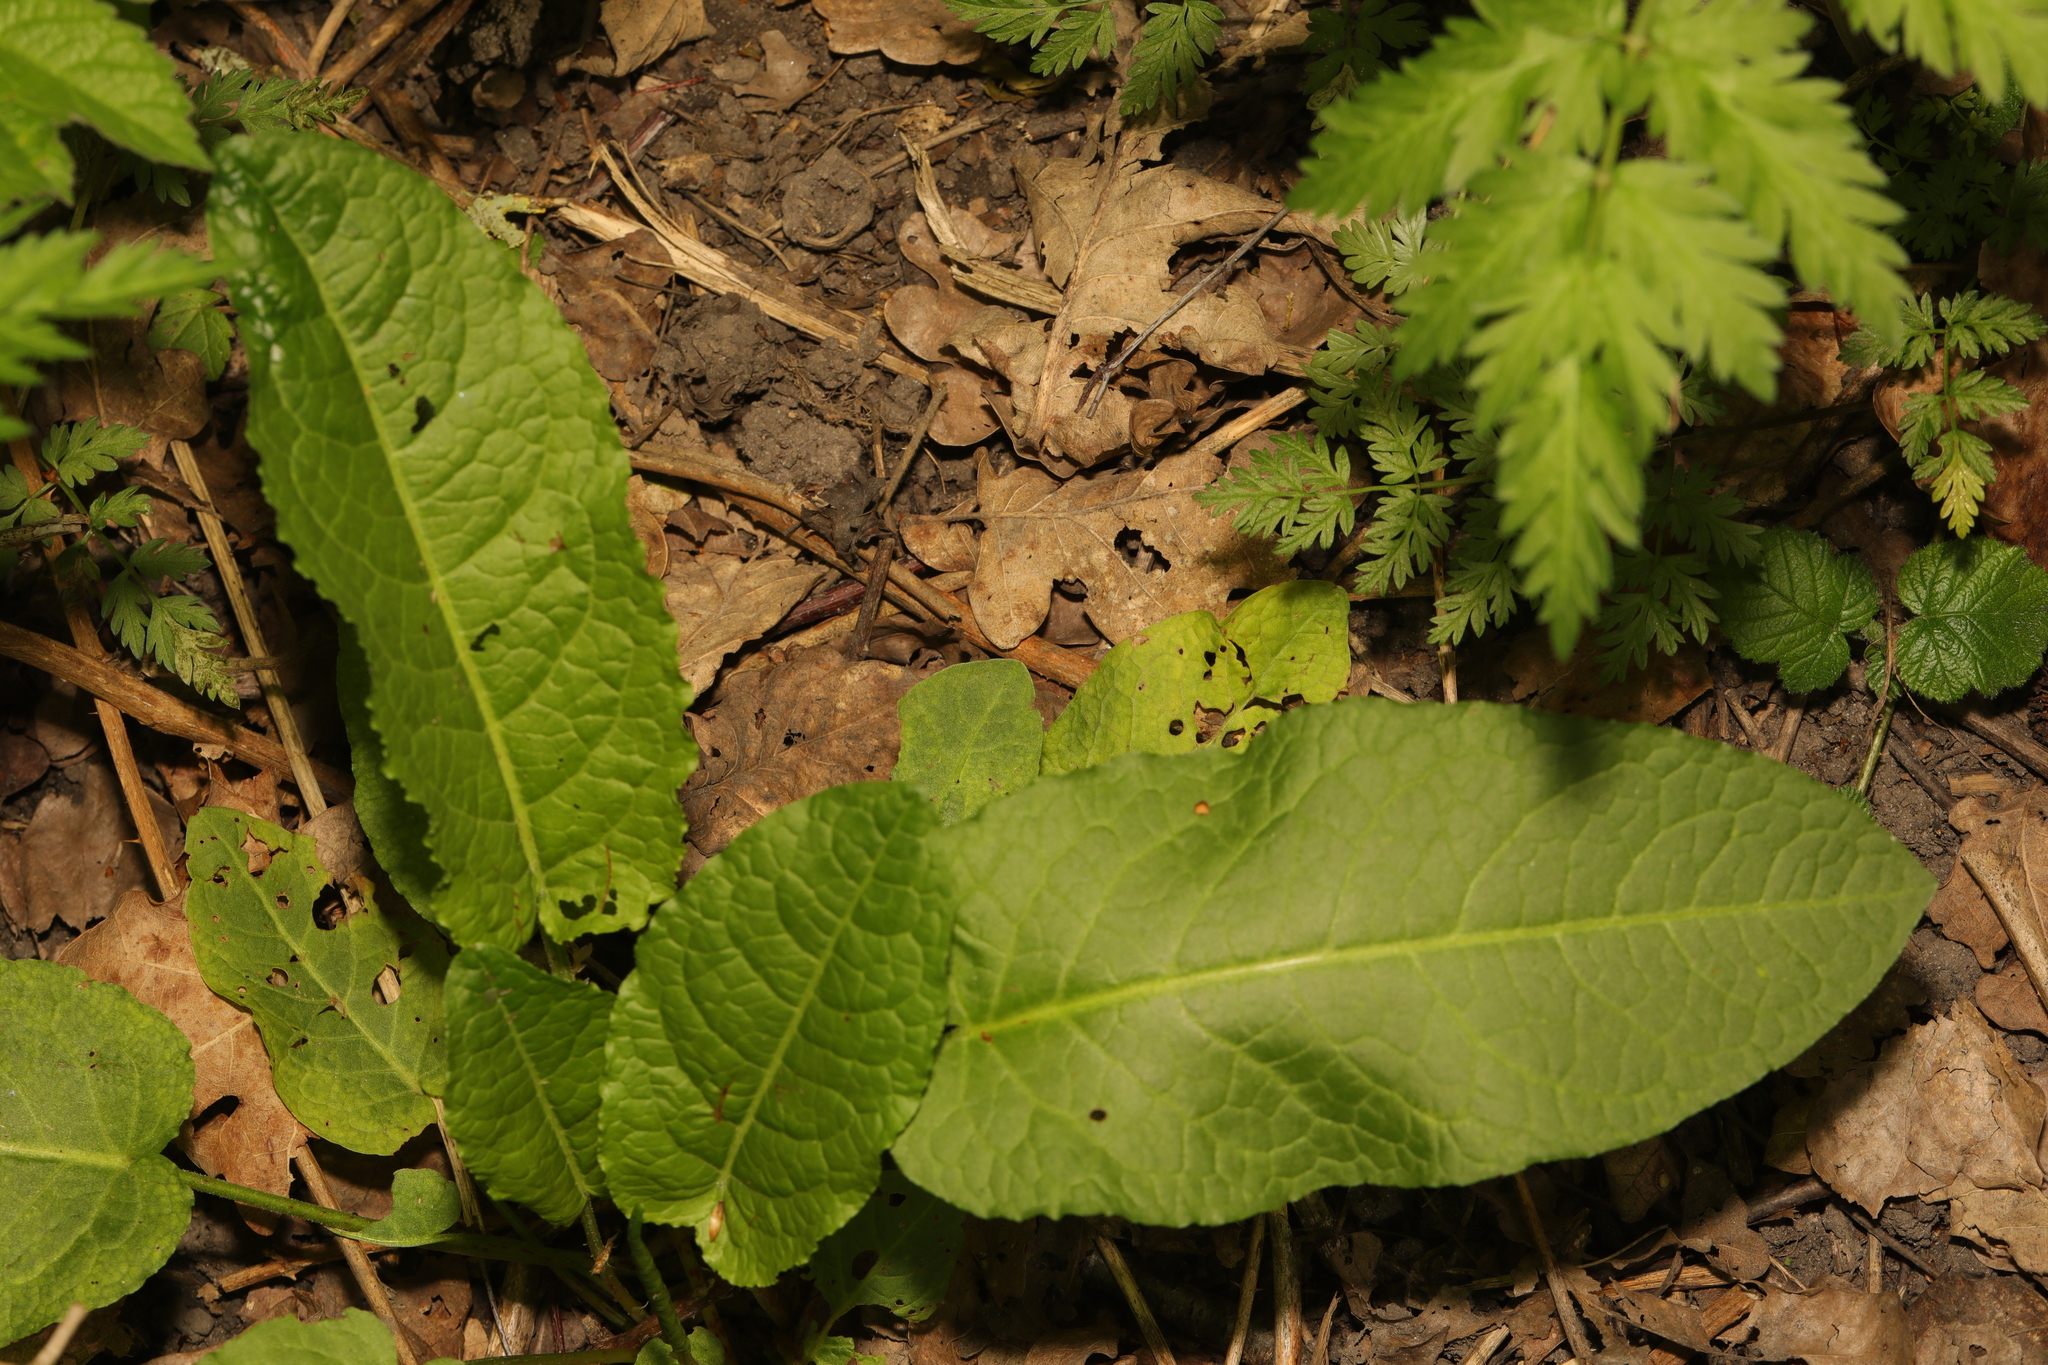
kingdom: Plantae
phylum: Tracheophyta
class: Magnoliopsida
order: Caryophyllales
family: Polygonaceae
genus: Rumex
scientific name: Rumex obtusifolius
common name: Bitter dock
